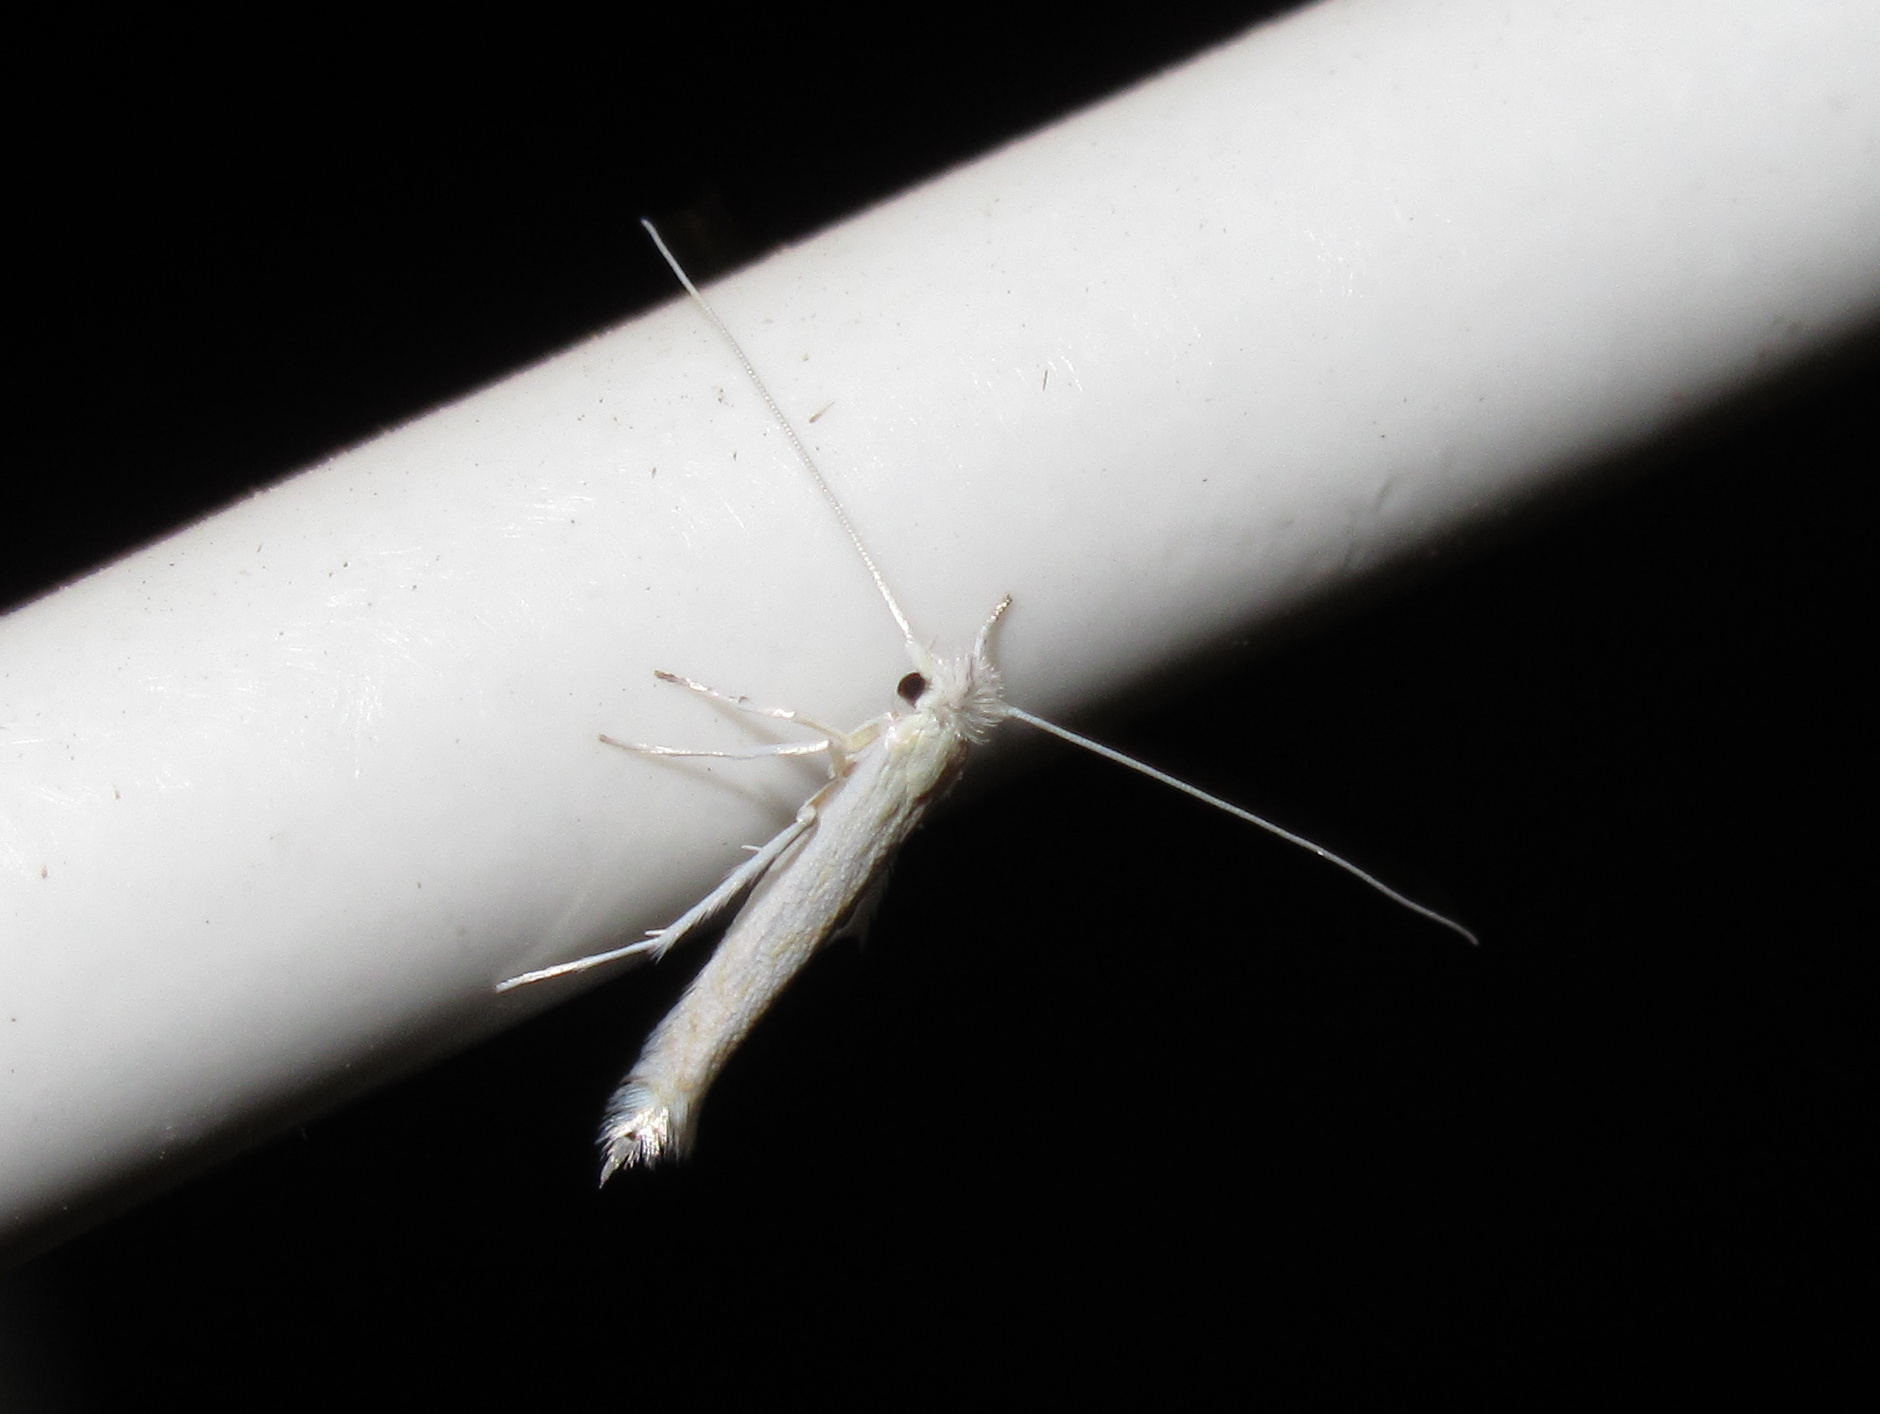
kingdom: Animalia
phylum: Arthropoda
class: Insecta
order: Lepidoptera
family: Lyonetiidae
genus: Stegommata
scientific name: Stegommata sulfuratella
